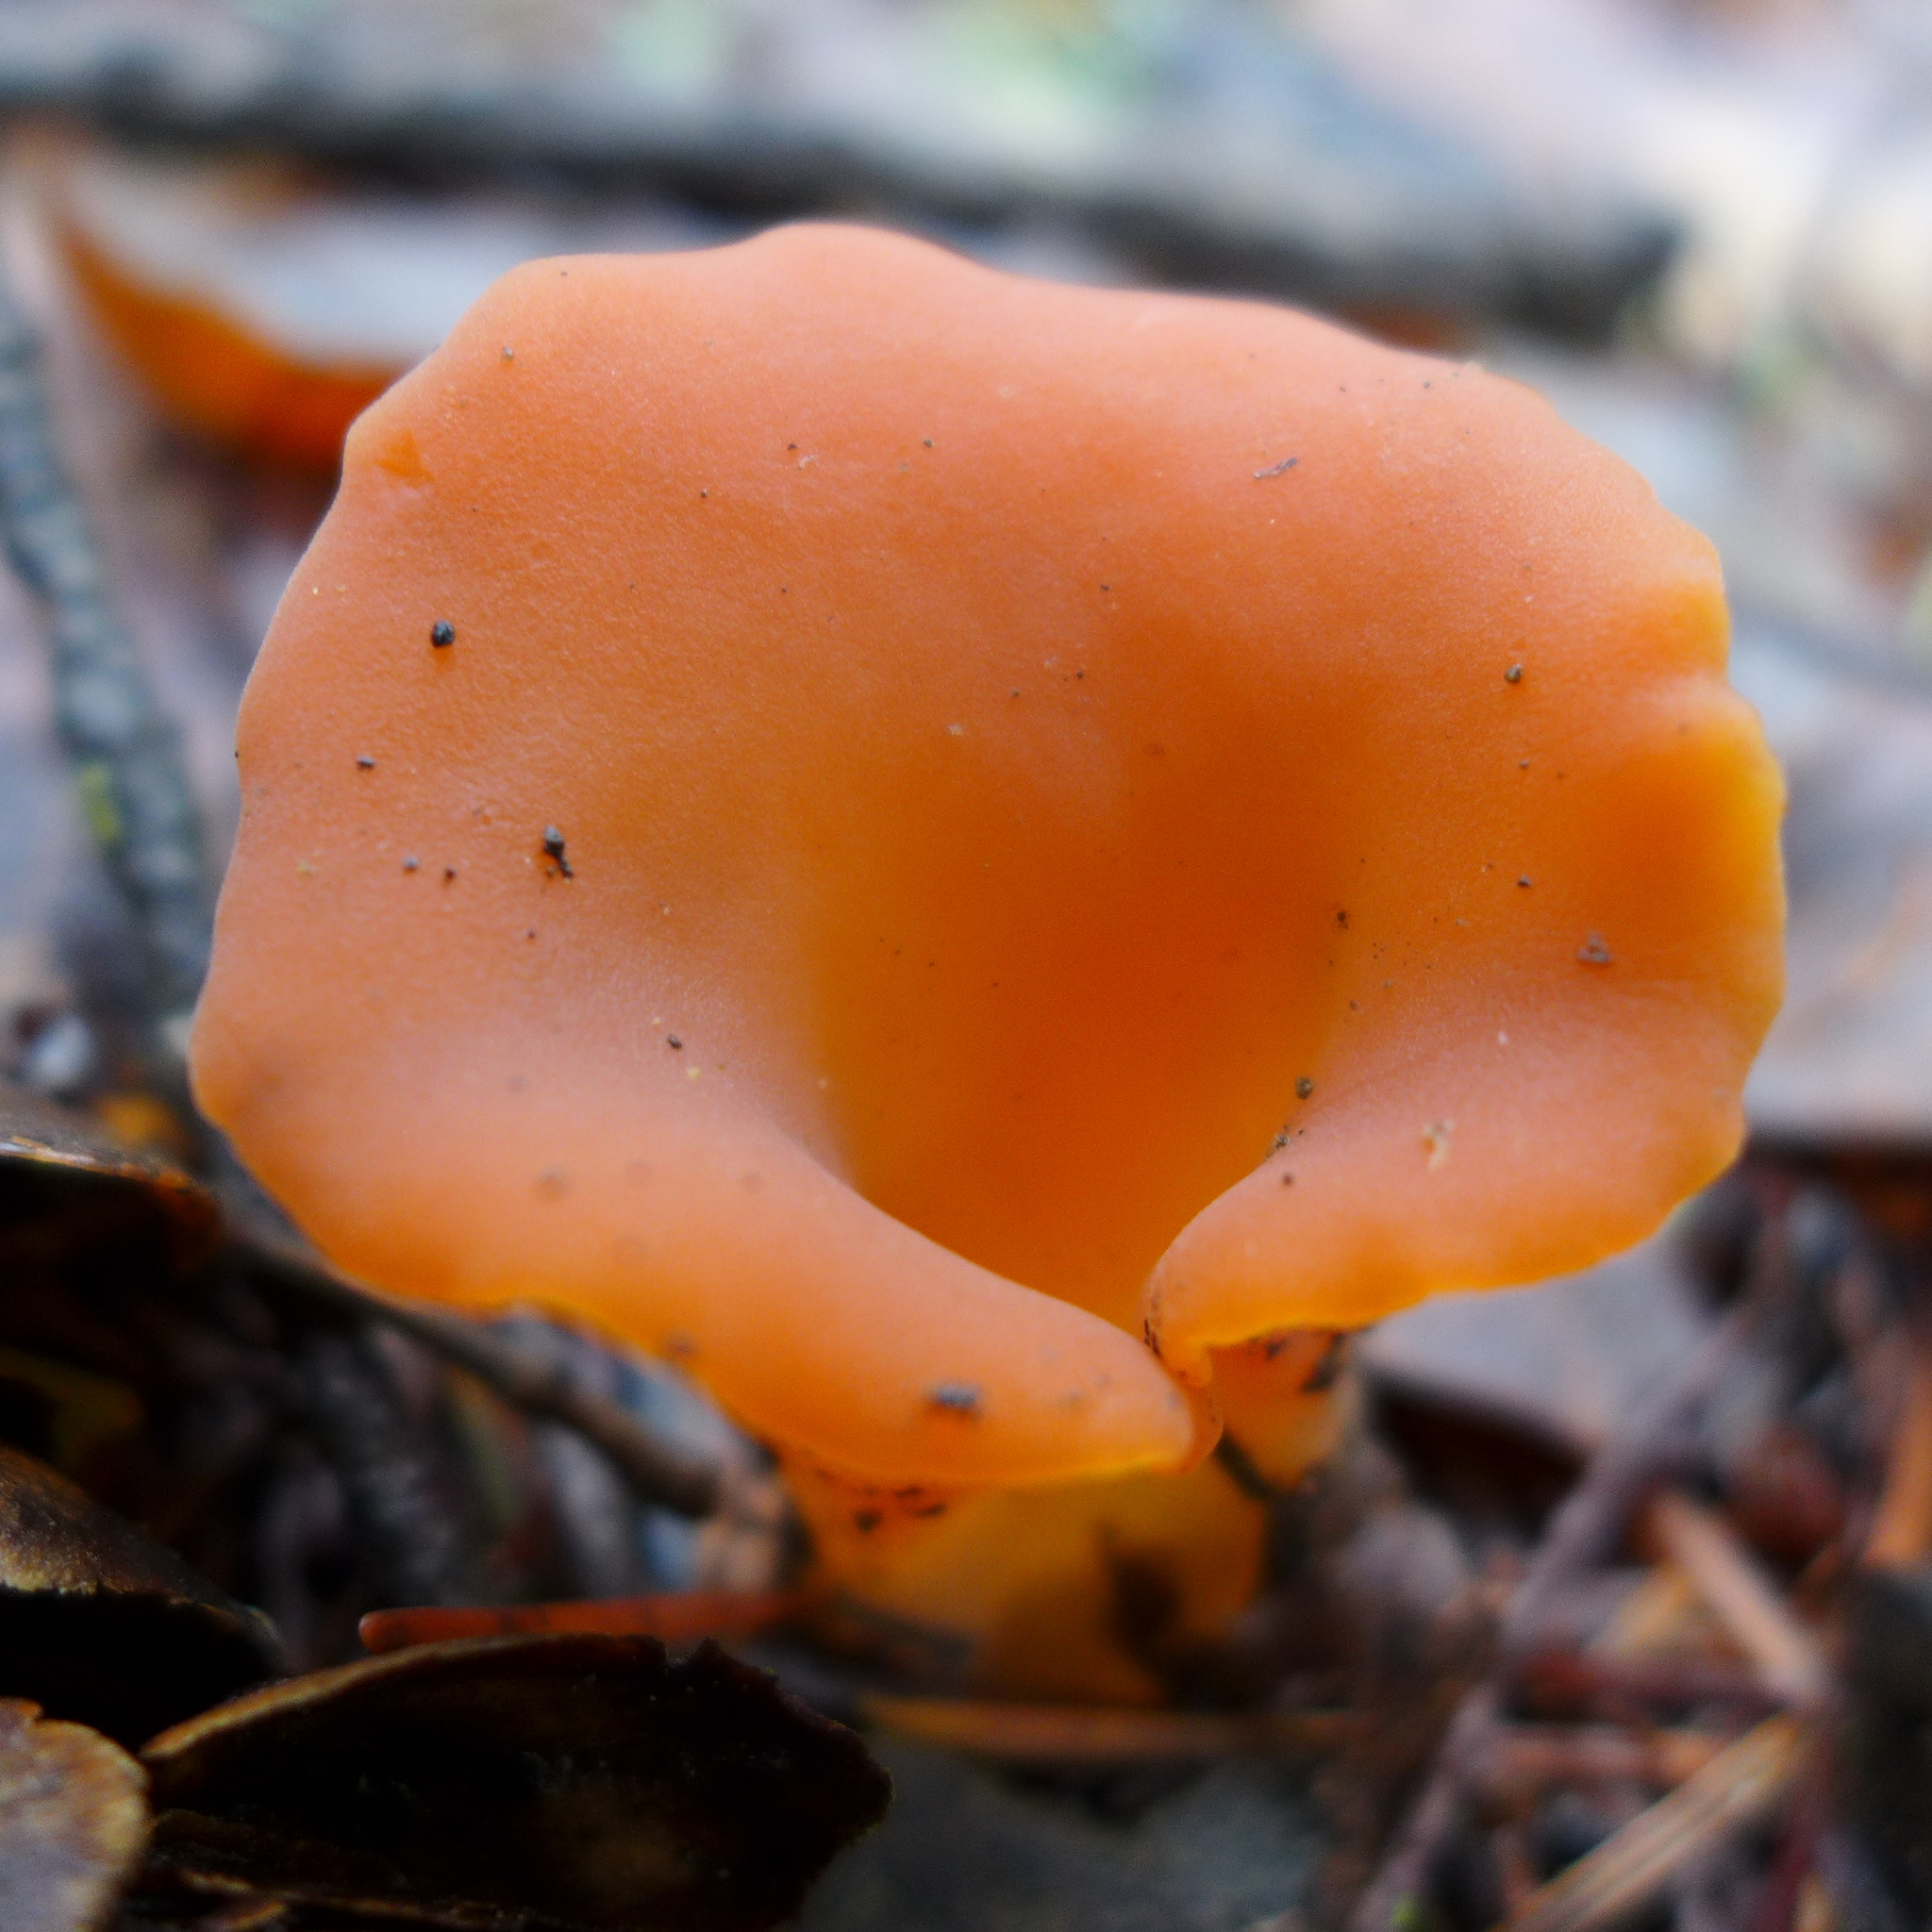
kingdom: Fungi
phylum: Basidiomycota
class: Agaricomycetes
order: Auriculariales
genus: Guepinia
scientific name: Guepinia helvelloides
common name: Salmon salad
